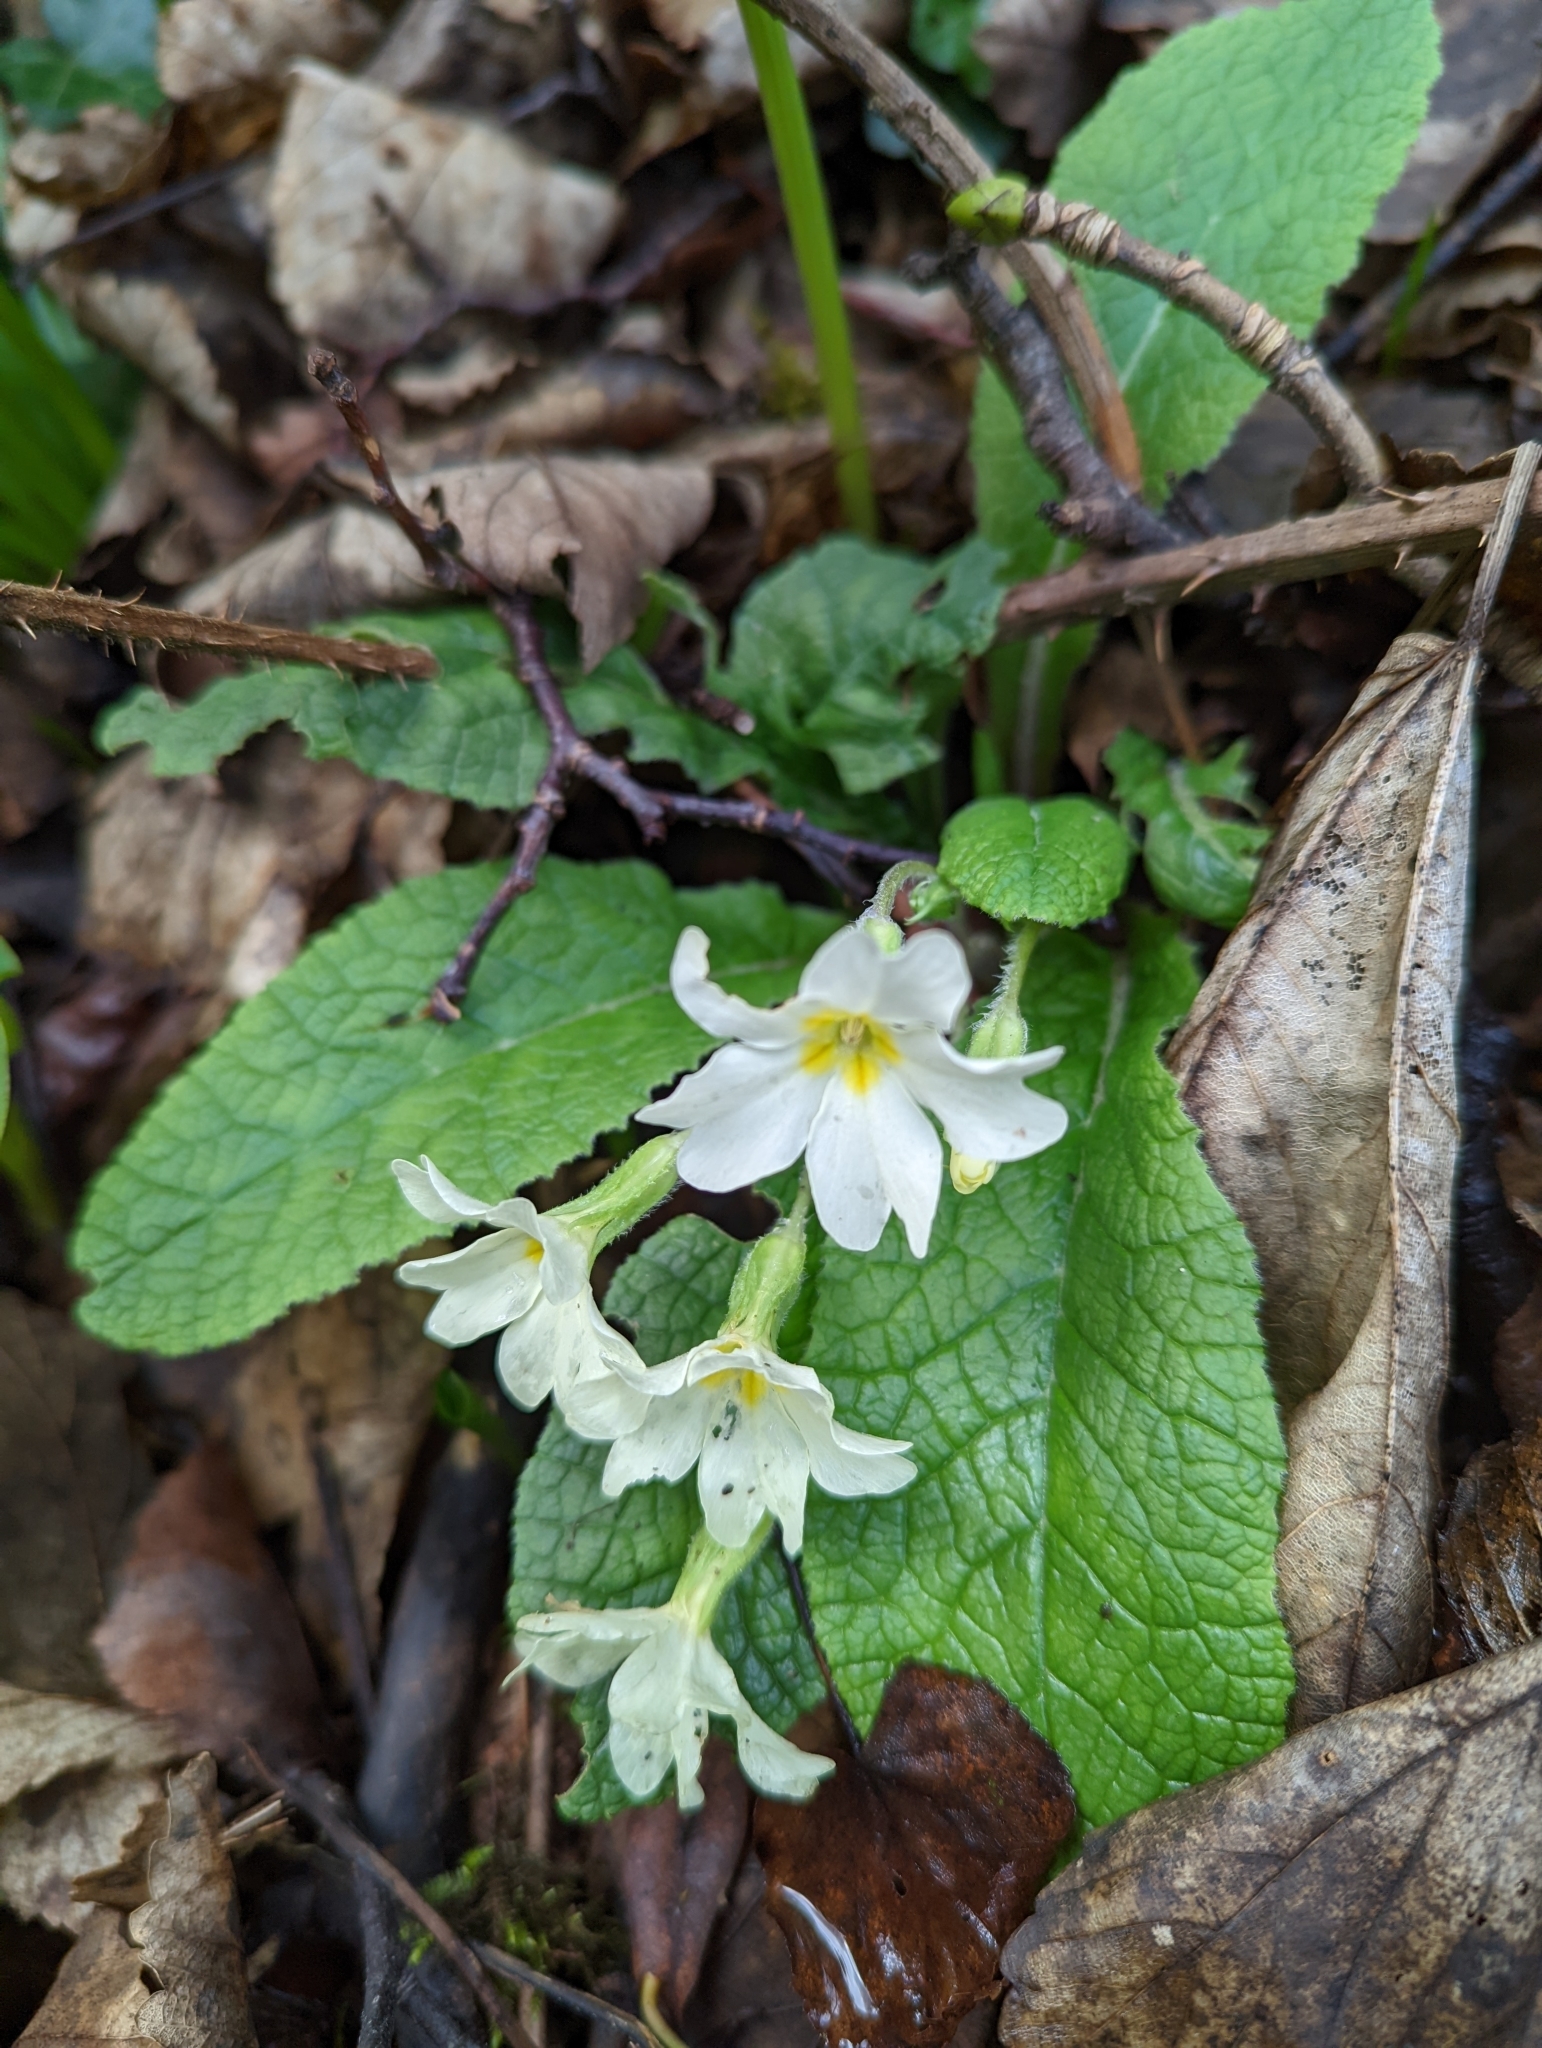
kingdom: Plantae
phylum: Tracheophyta
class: Magnoliopsida
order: Ericales
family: Primulaceae
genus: Primula
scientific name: Primula vulgaris
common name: Primrose
